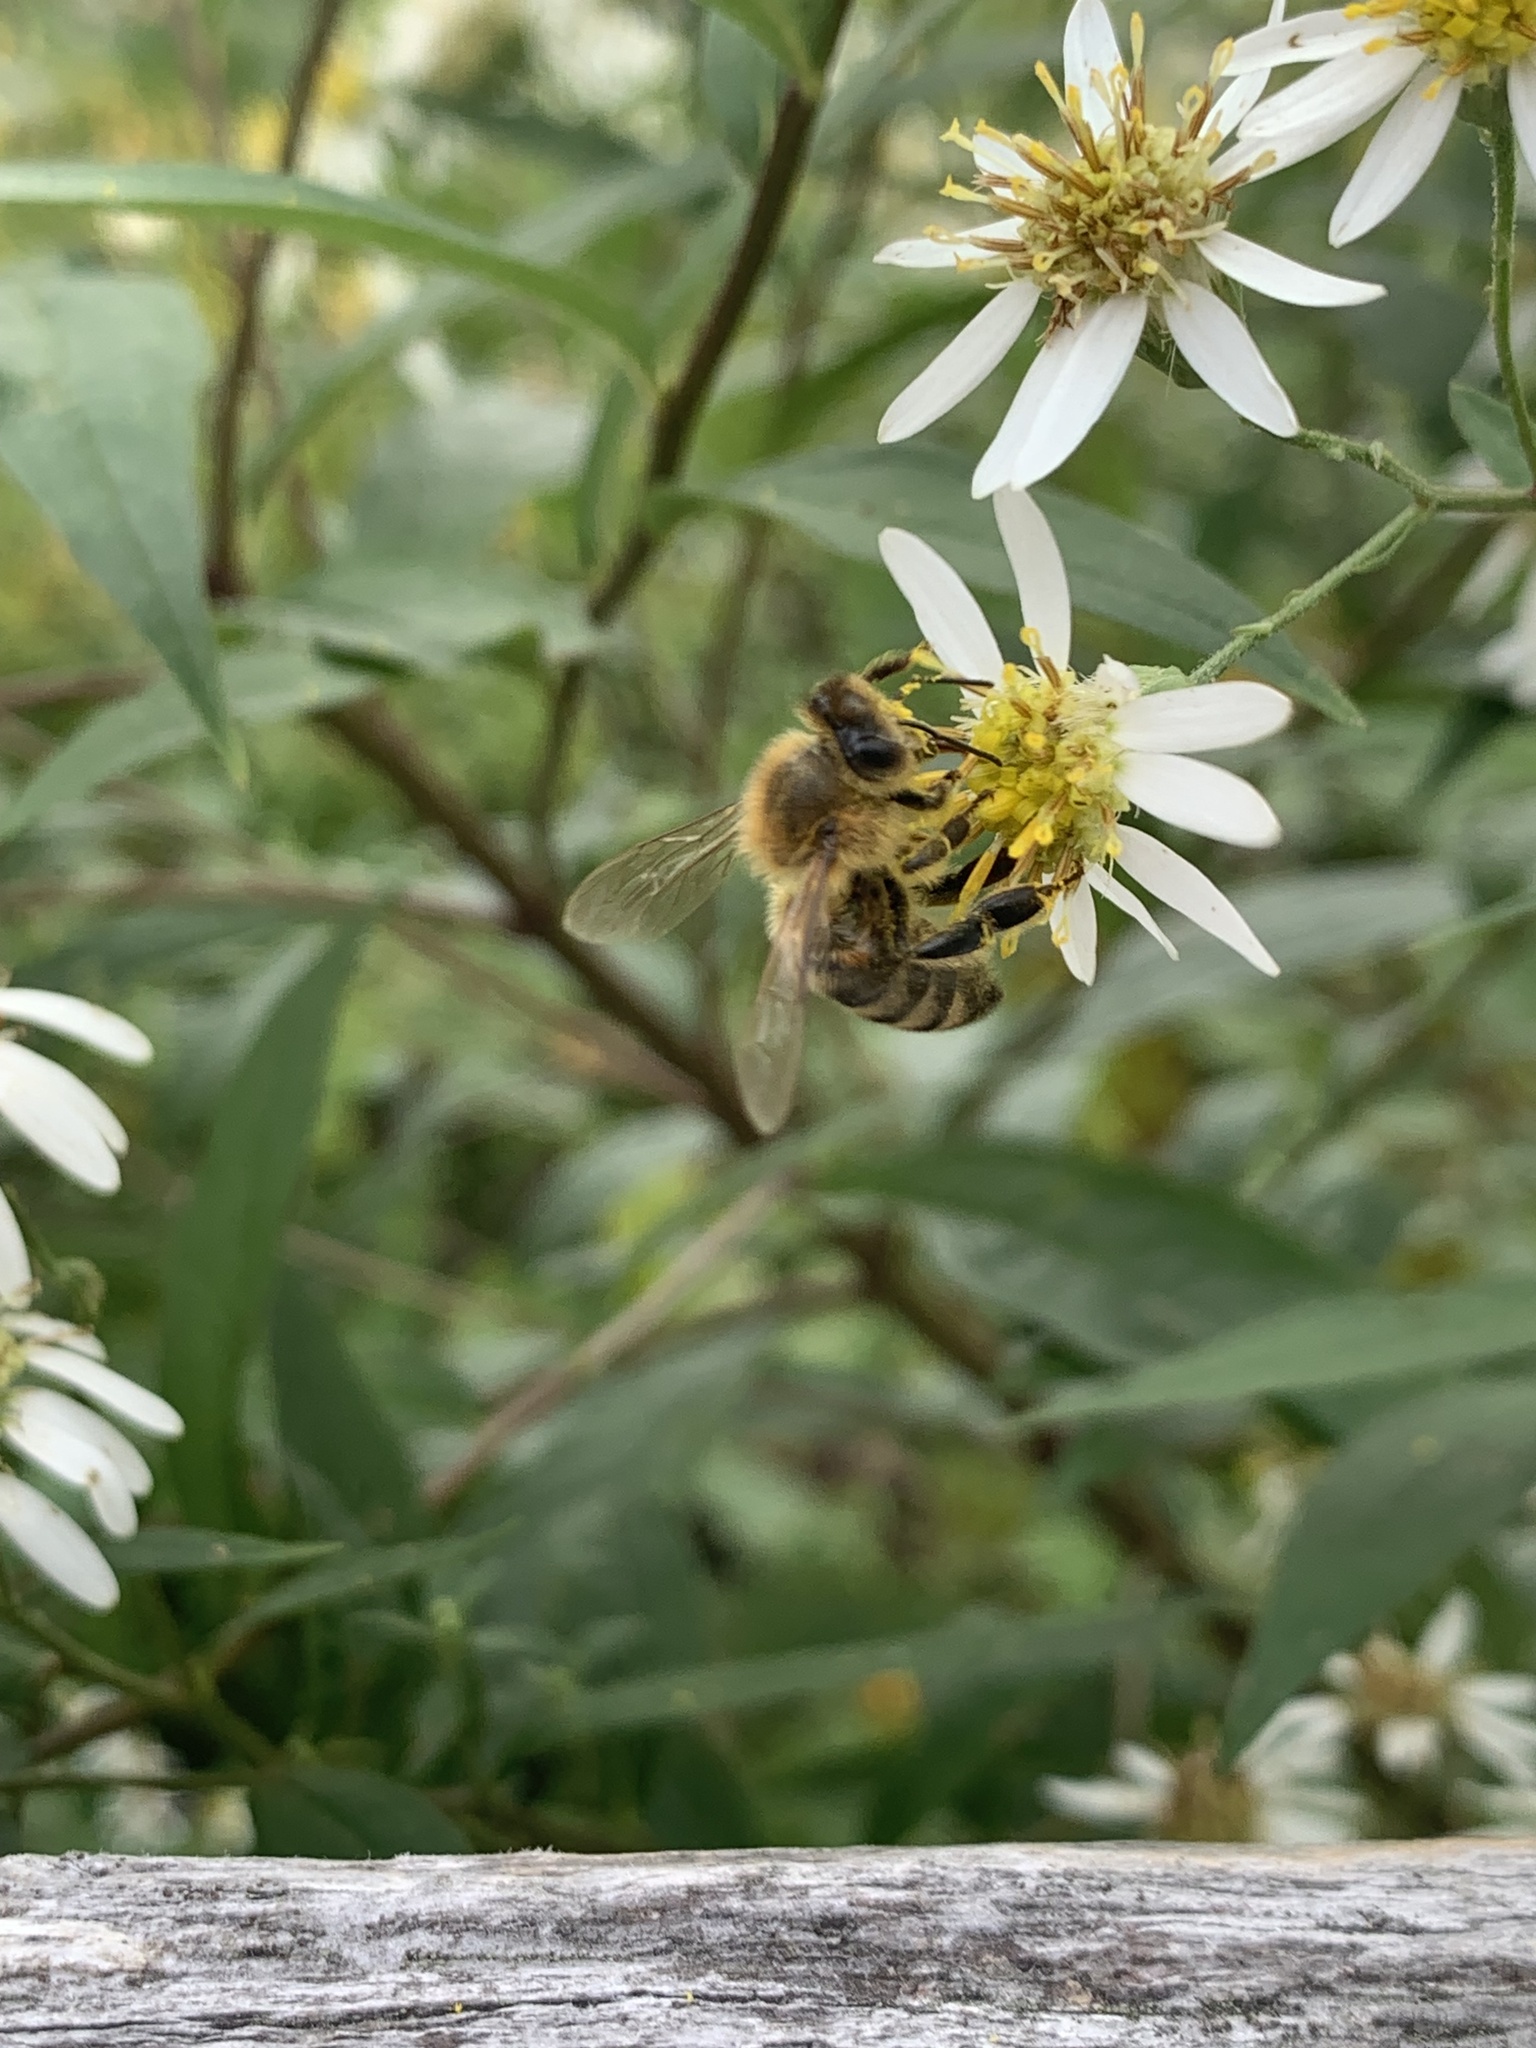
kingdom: Animalia
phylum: Arthropoda
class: Insecta
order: Hymenoptera
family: Apidae
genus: Apis
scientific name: Apis mellifera
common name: Honey bee
